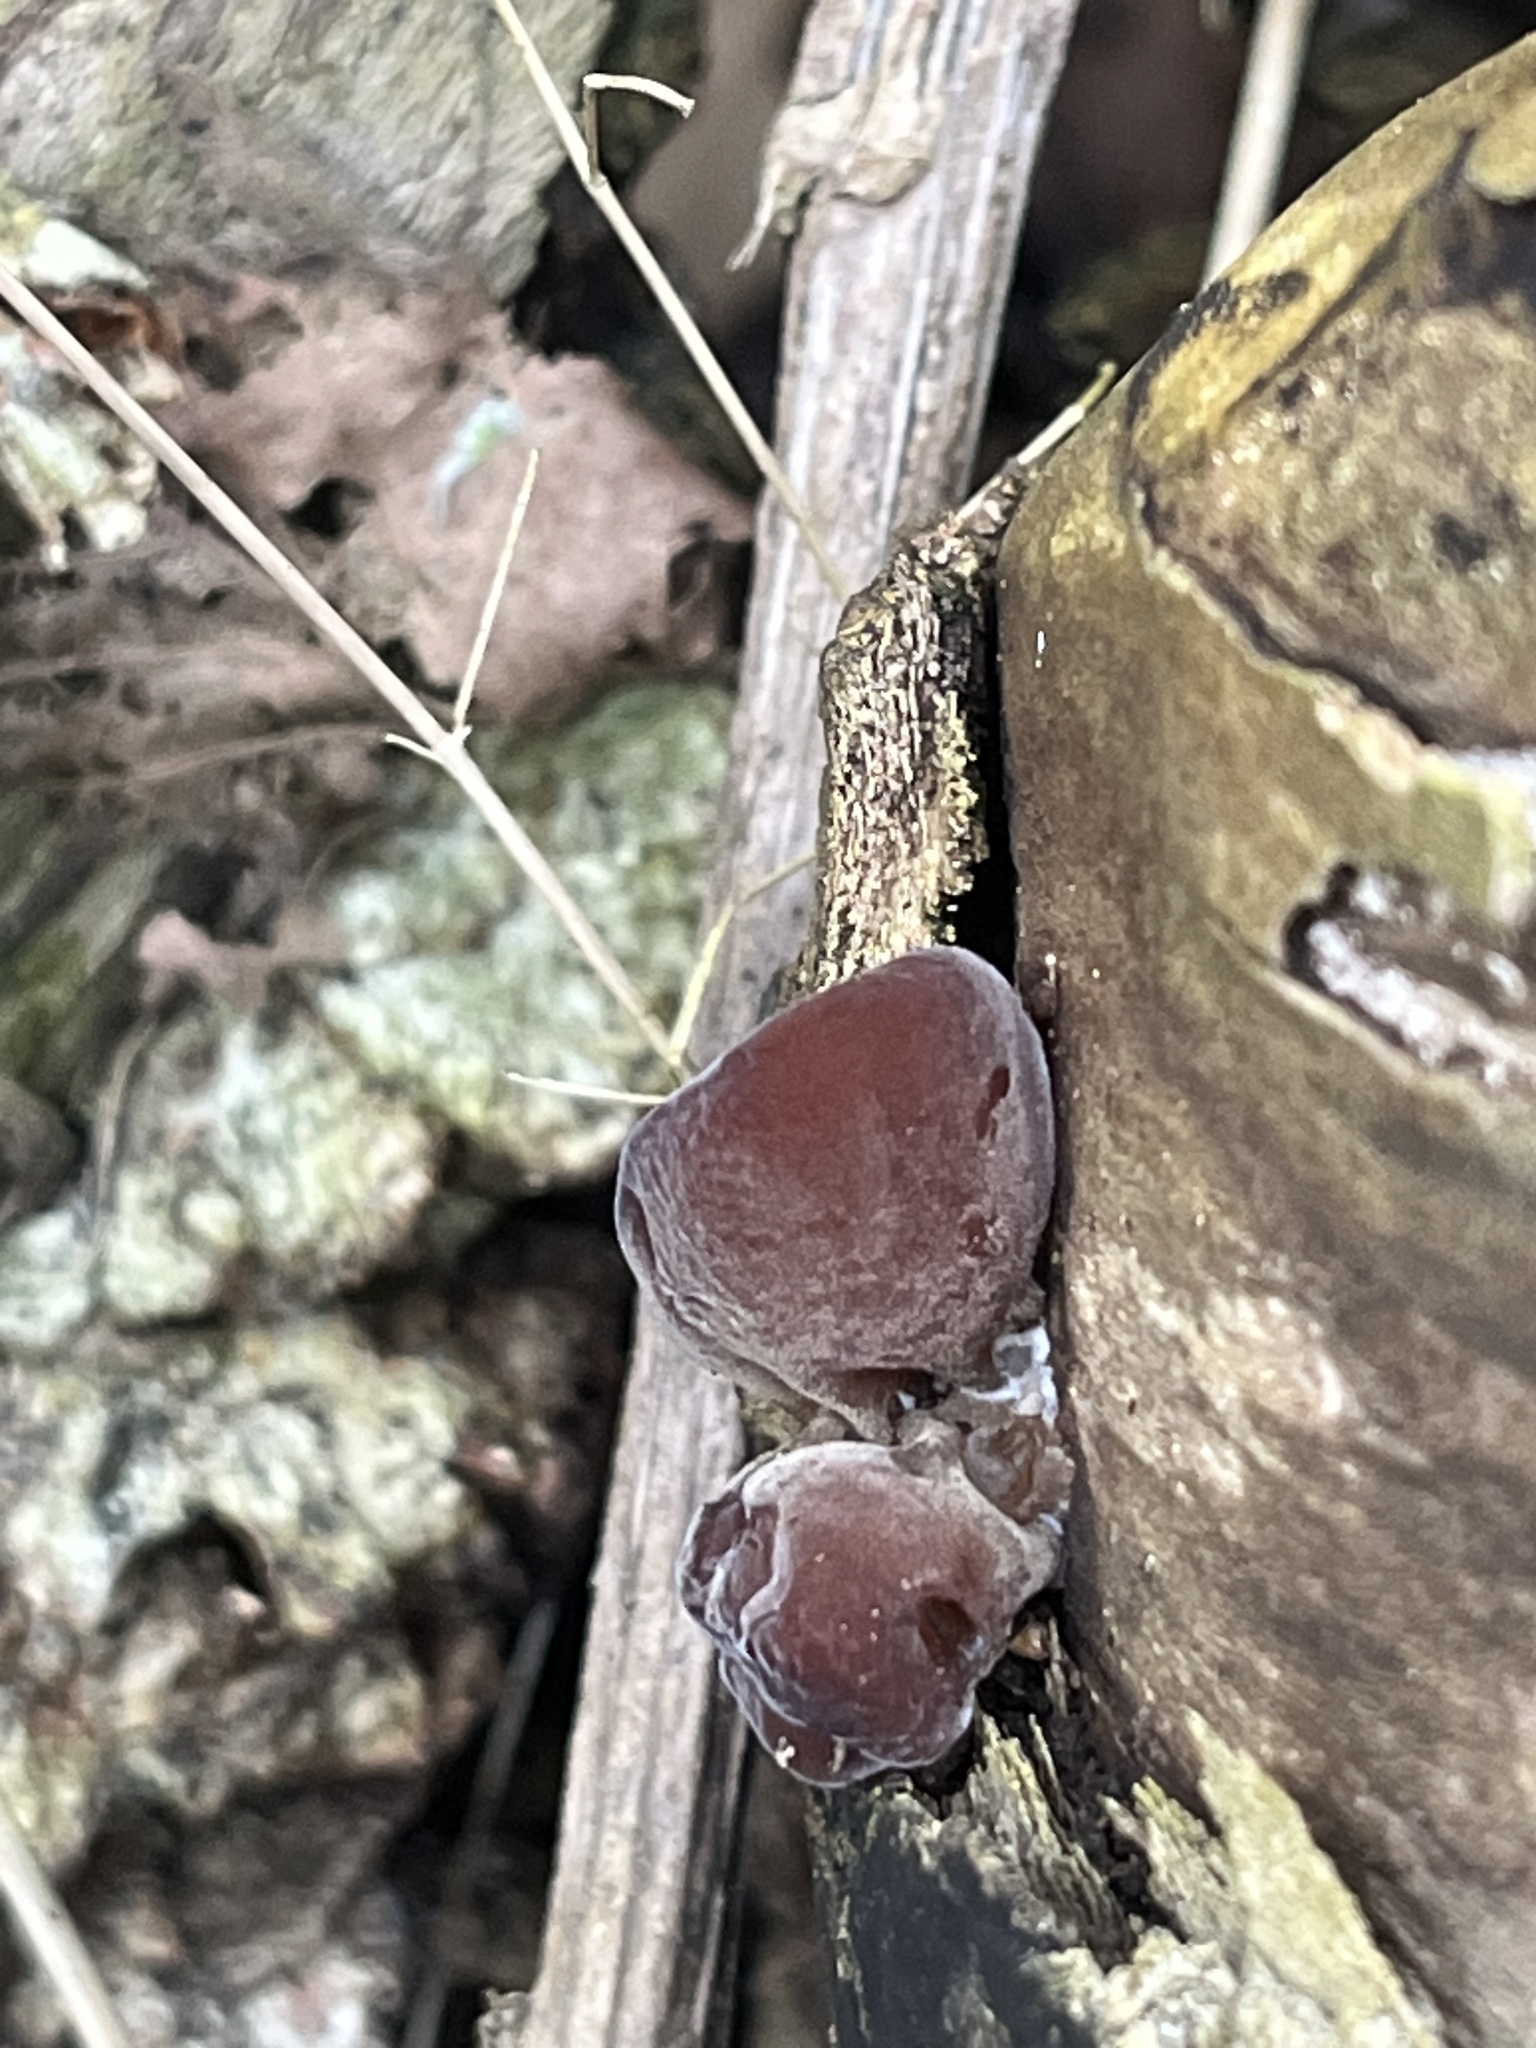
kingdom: Fungi
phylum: Basidiomycota
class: Agaricomycetes
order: Auriculariales
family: Auriculariaceae
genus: Auricularia
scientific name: Auricularia auricula-judae
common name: Jelly ear
